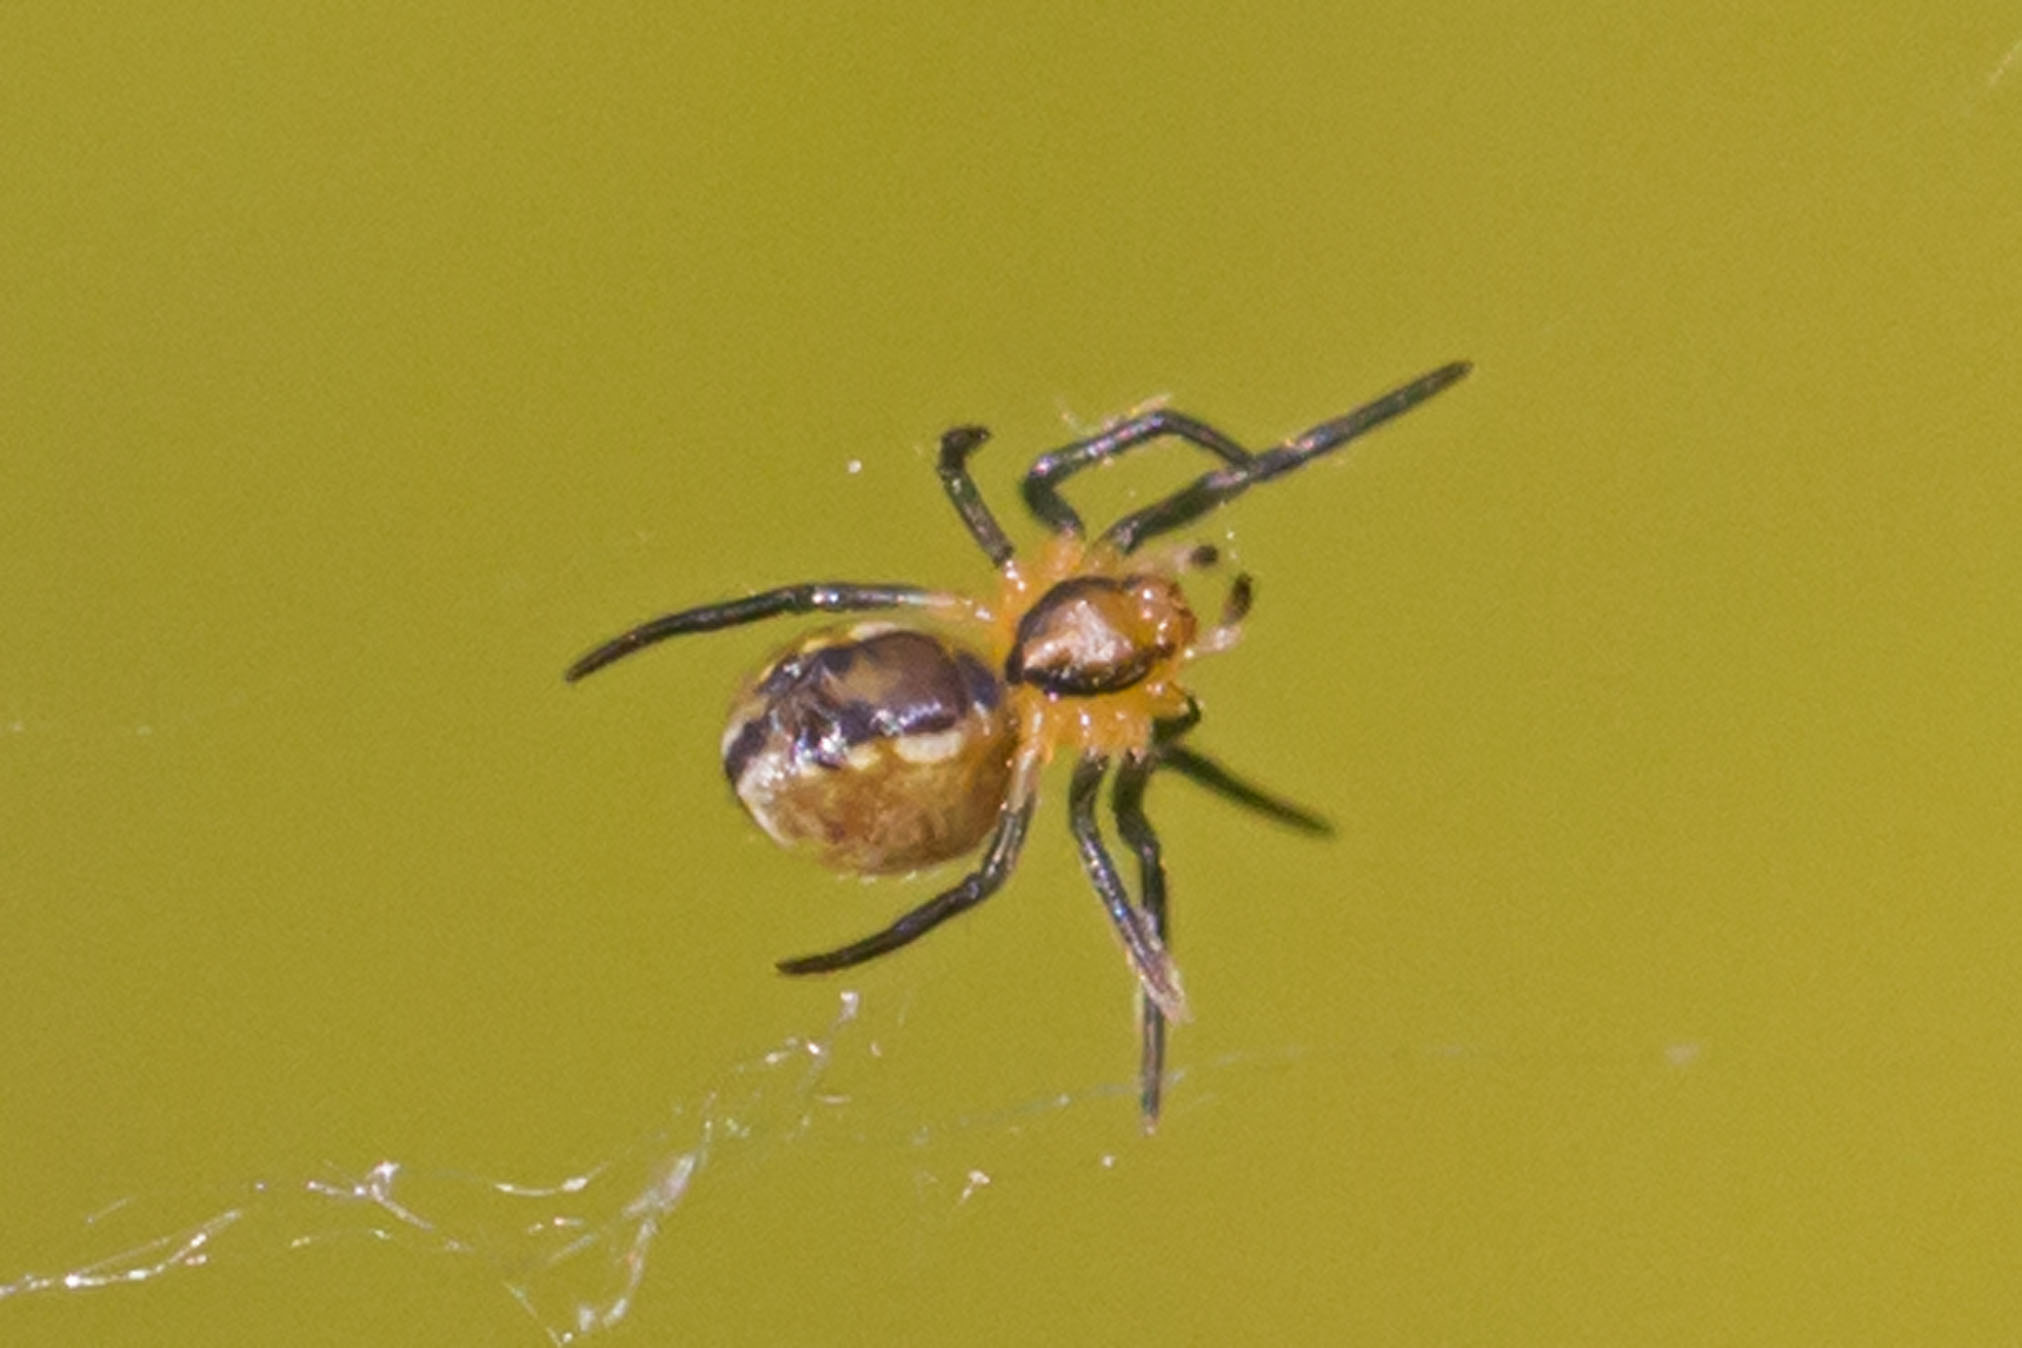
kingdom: Animalia
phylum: Arthropoda
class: Arachnida
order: Araneae
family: Araneidae
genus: Mecynogea
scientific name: Mecynogea lemniscata
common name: Orb weavers
